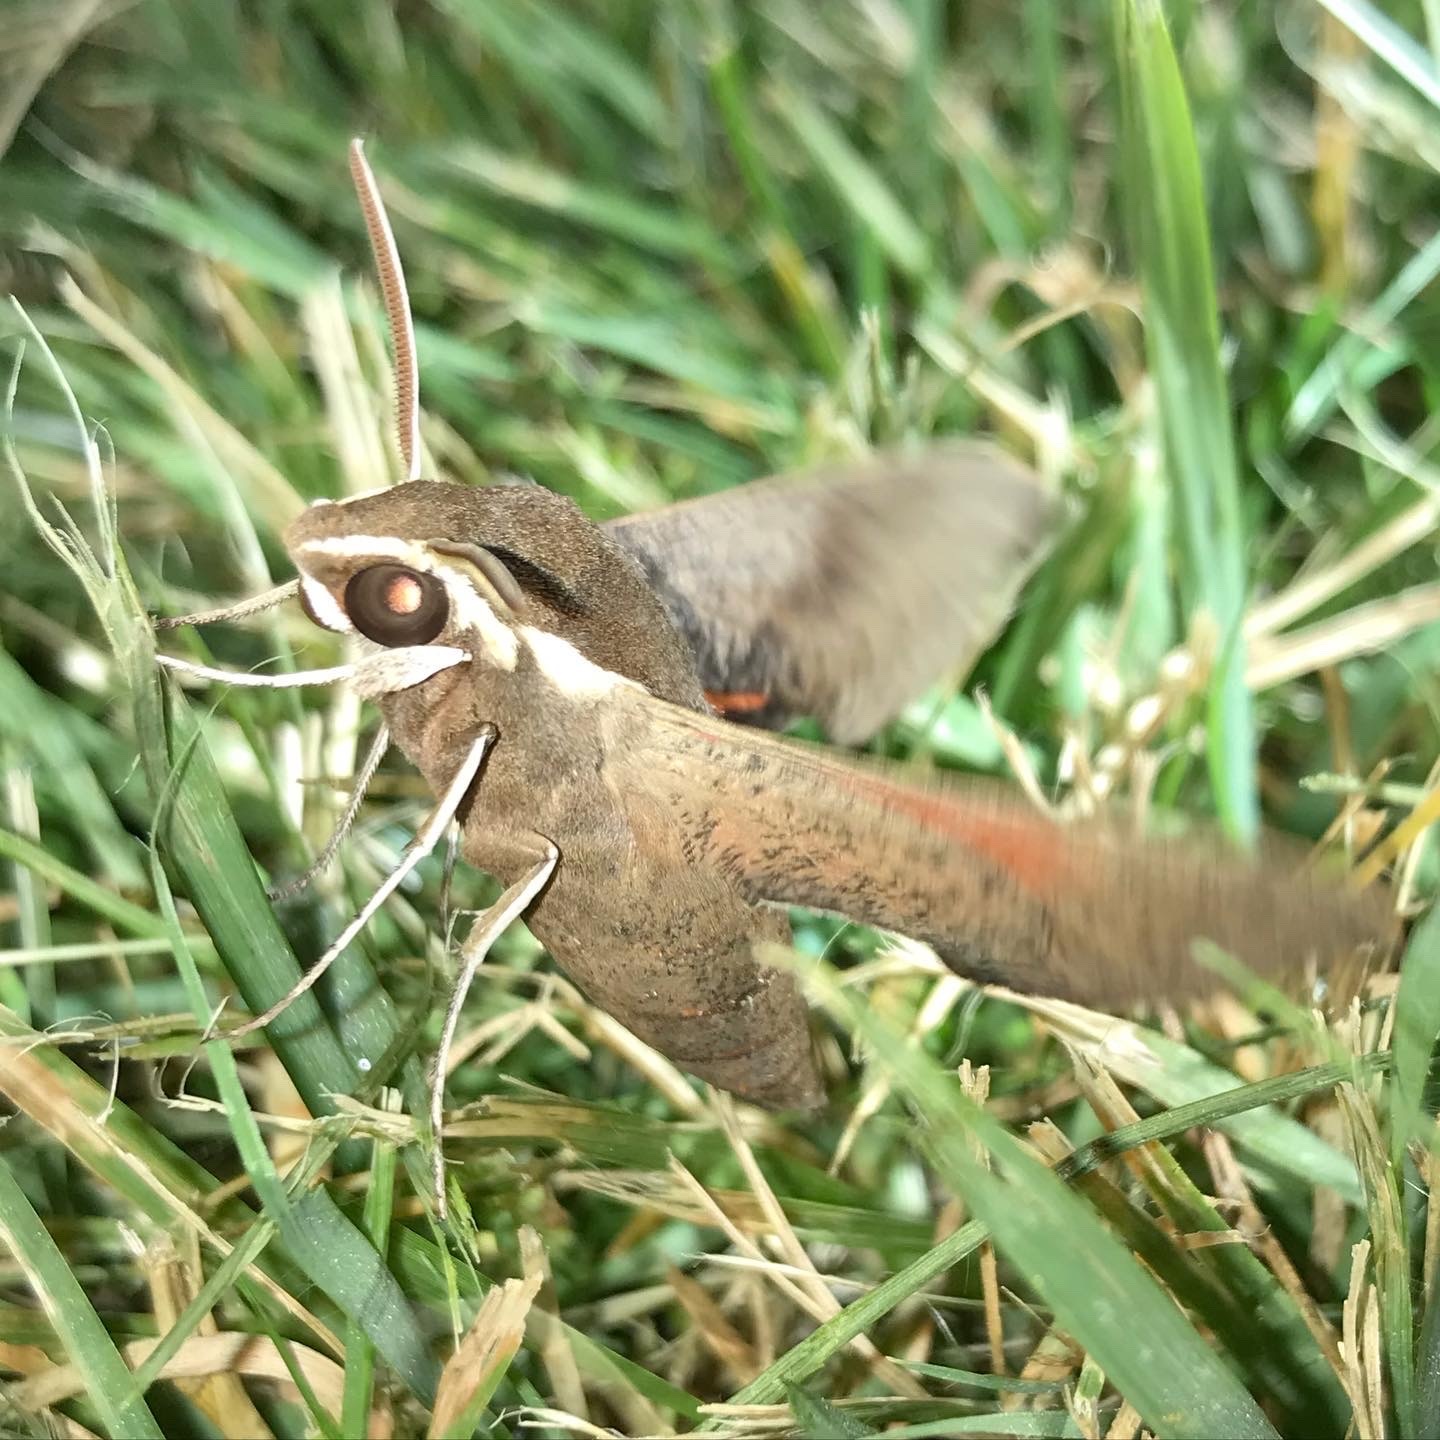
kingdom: Animalia
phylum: Arthropoda
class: Insecta
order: Lepidoptera
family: Sphingidae
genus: Hippotion
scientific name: Hippotion scrofa
